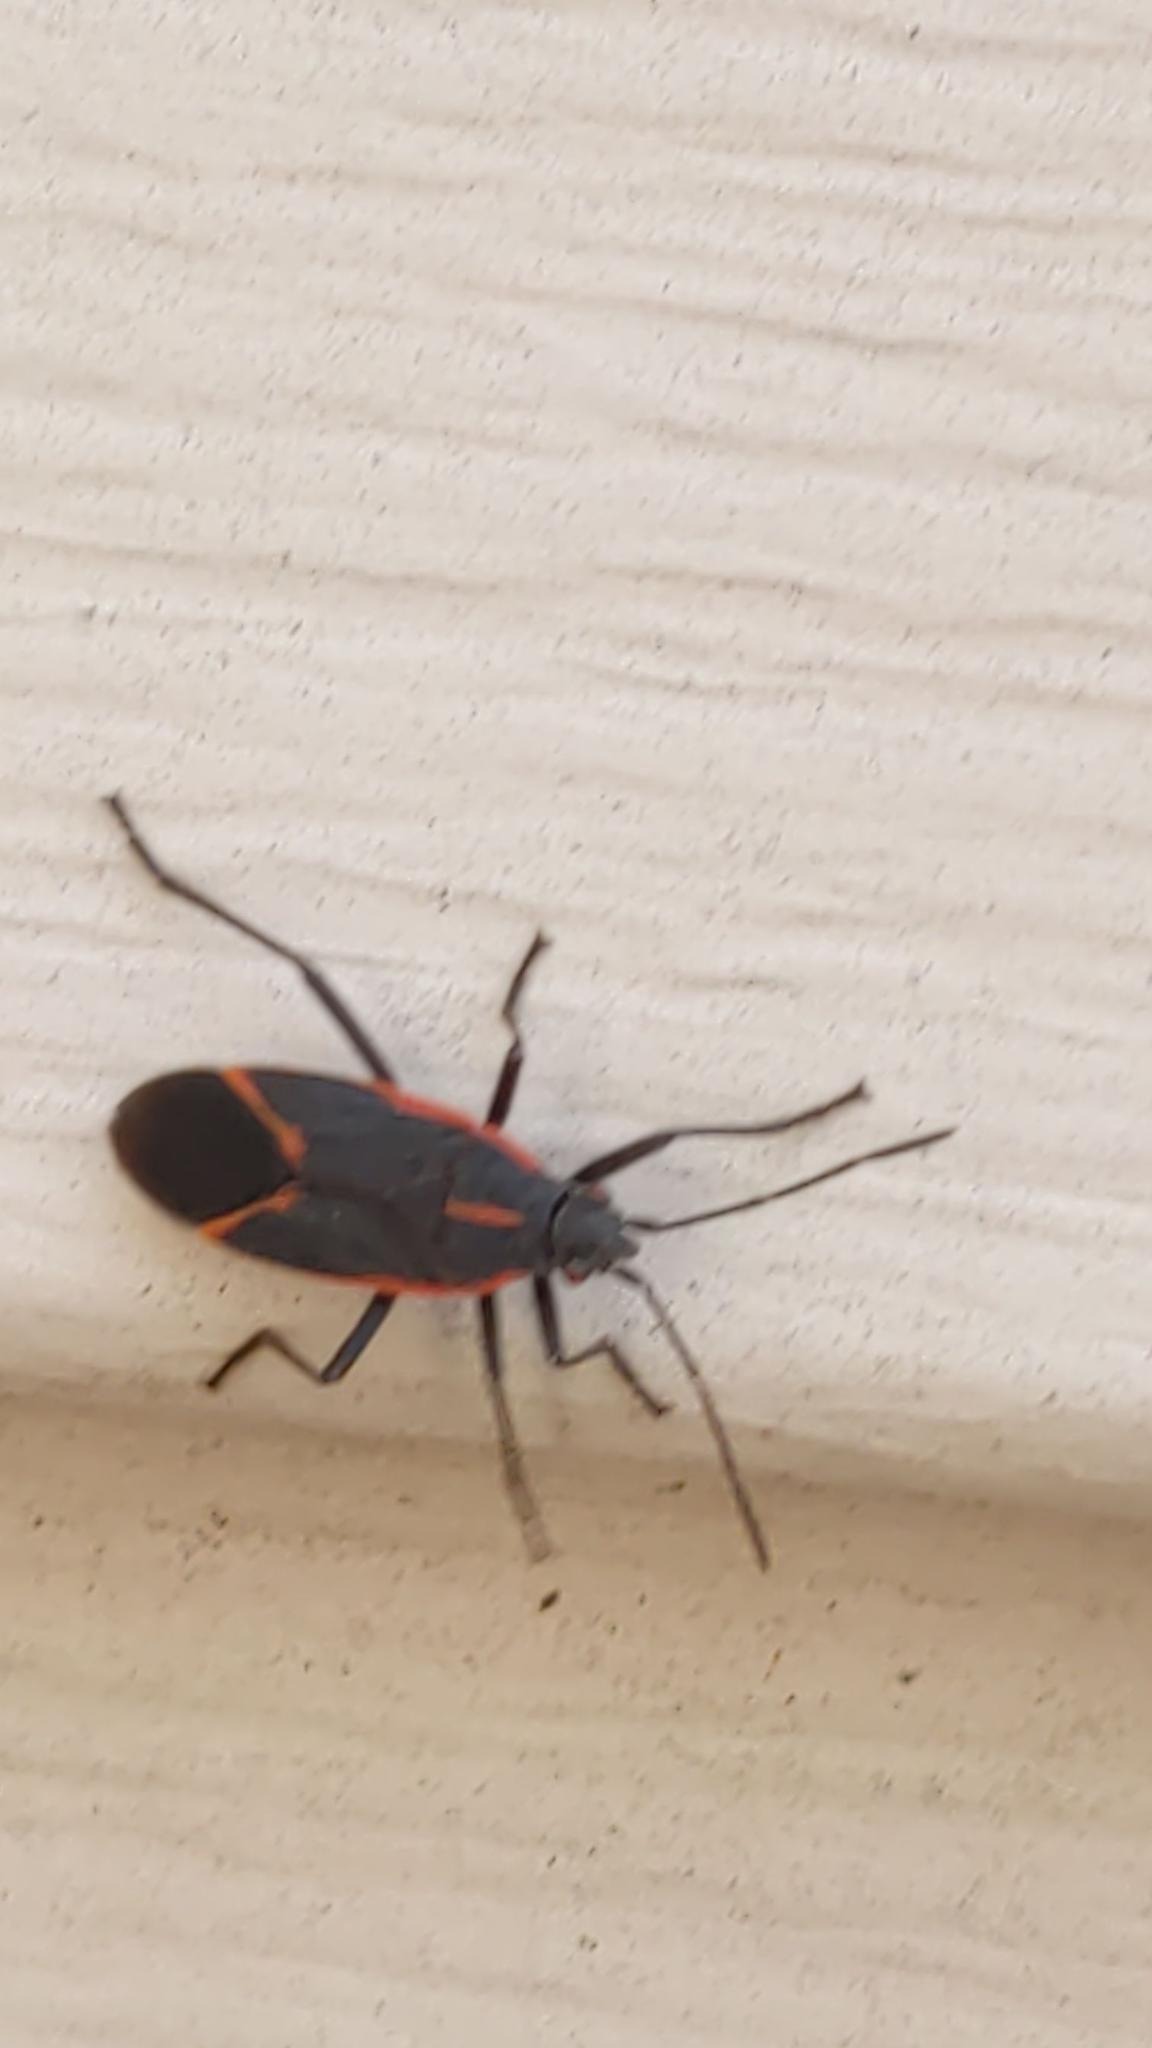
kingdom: Animalia
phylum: Arthropoda
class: Insecta
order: Hemiptera
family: Rhopalidae
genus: Boisea
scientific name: Boisea trivittata
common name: Boxelder bug
